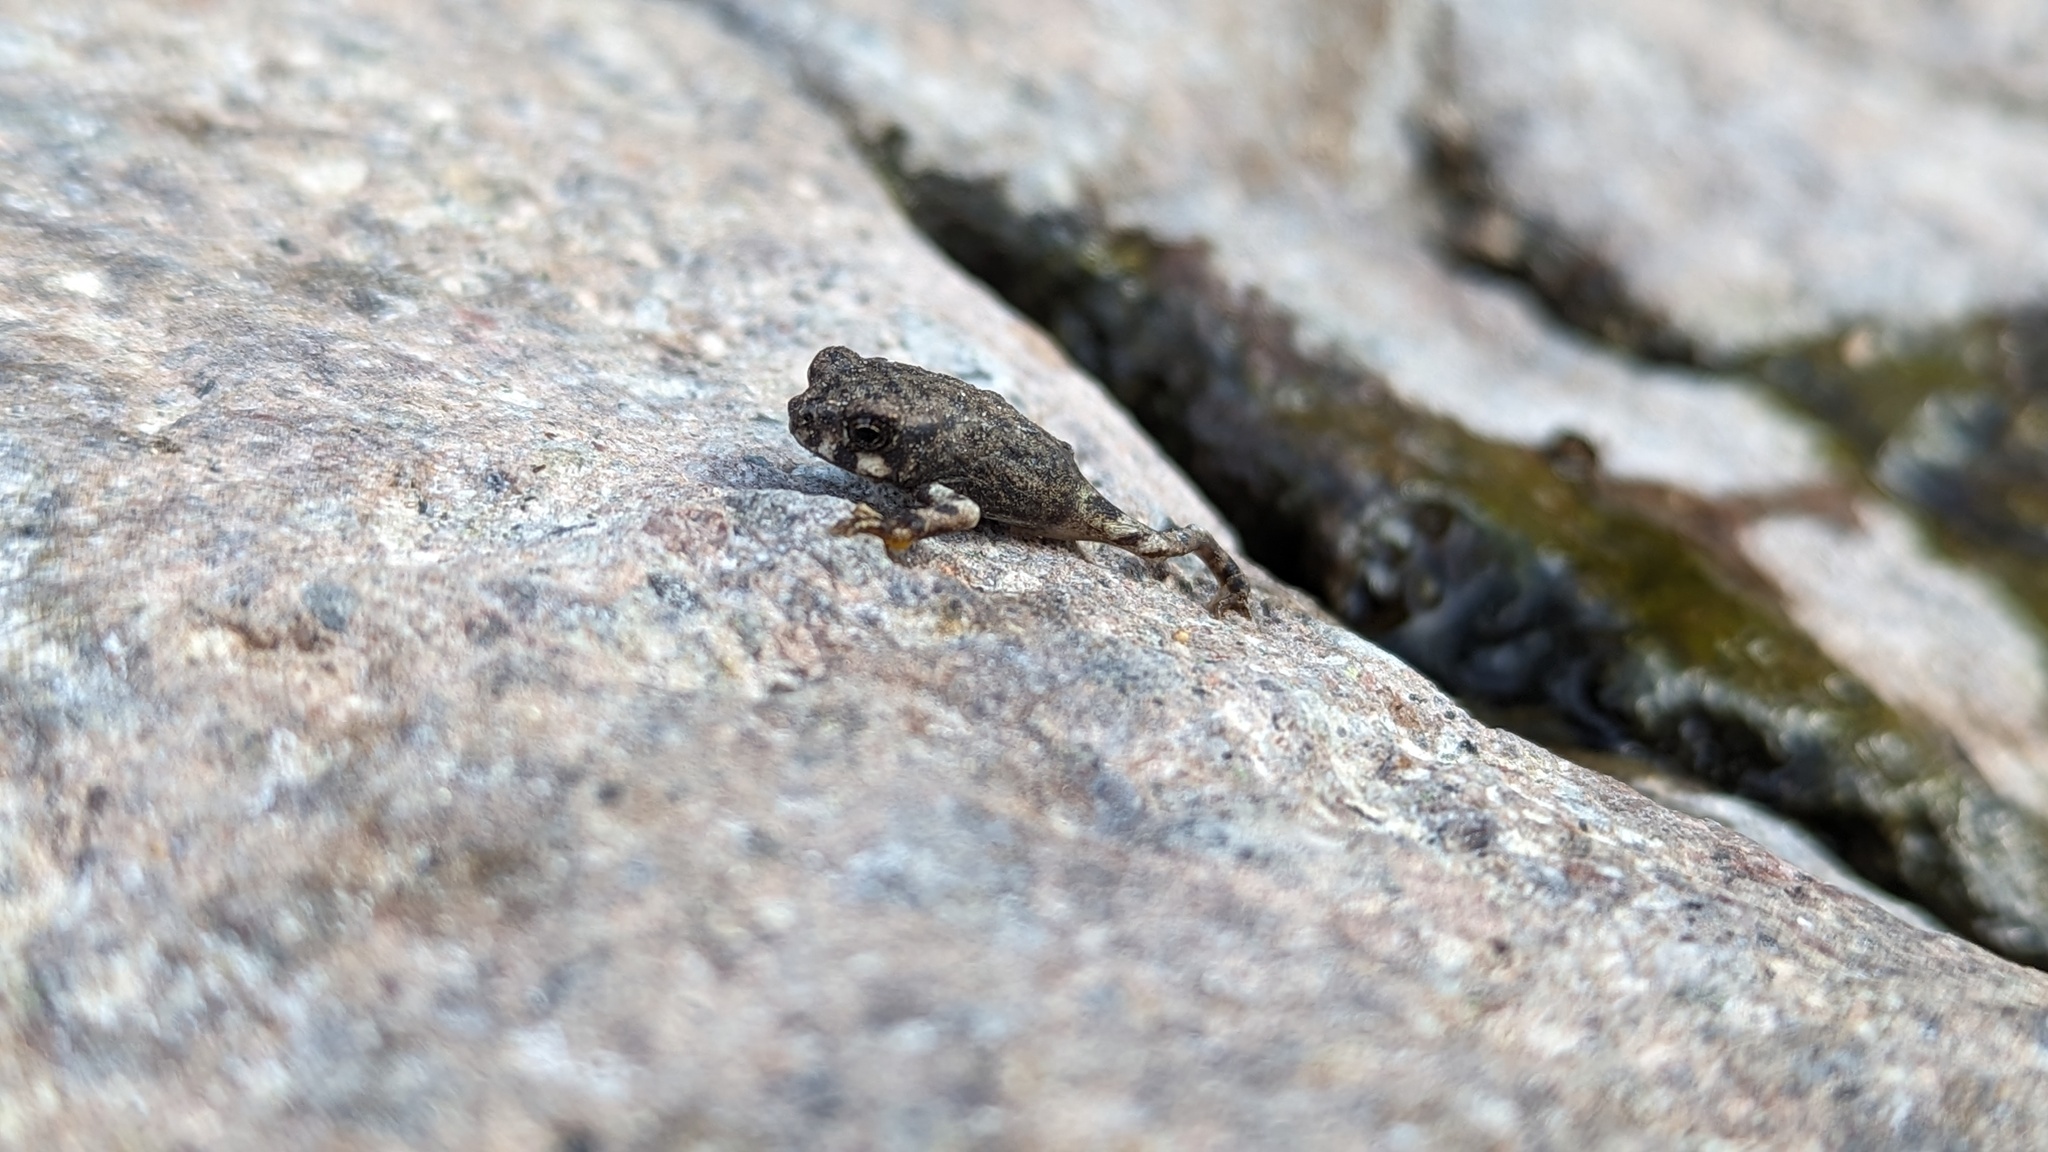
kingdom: Animalia
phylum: Chordata
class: Amphibia
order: Anura
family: Bufonidae
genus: Anaxyrus
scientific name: Anaxyrus punctatus
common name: Red-spotted toad
